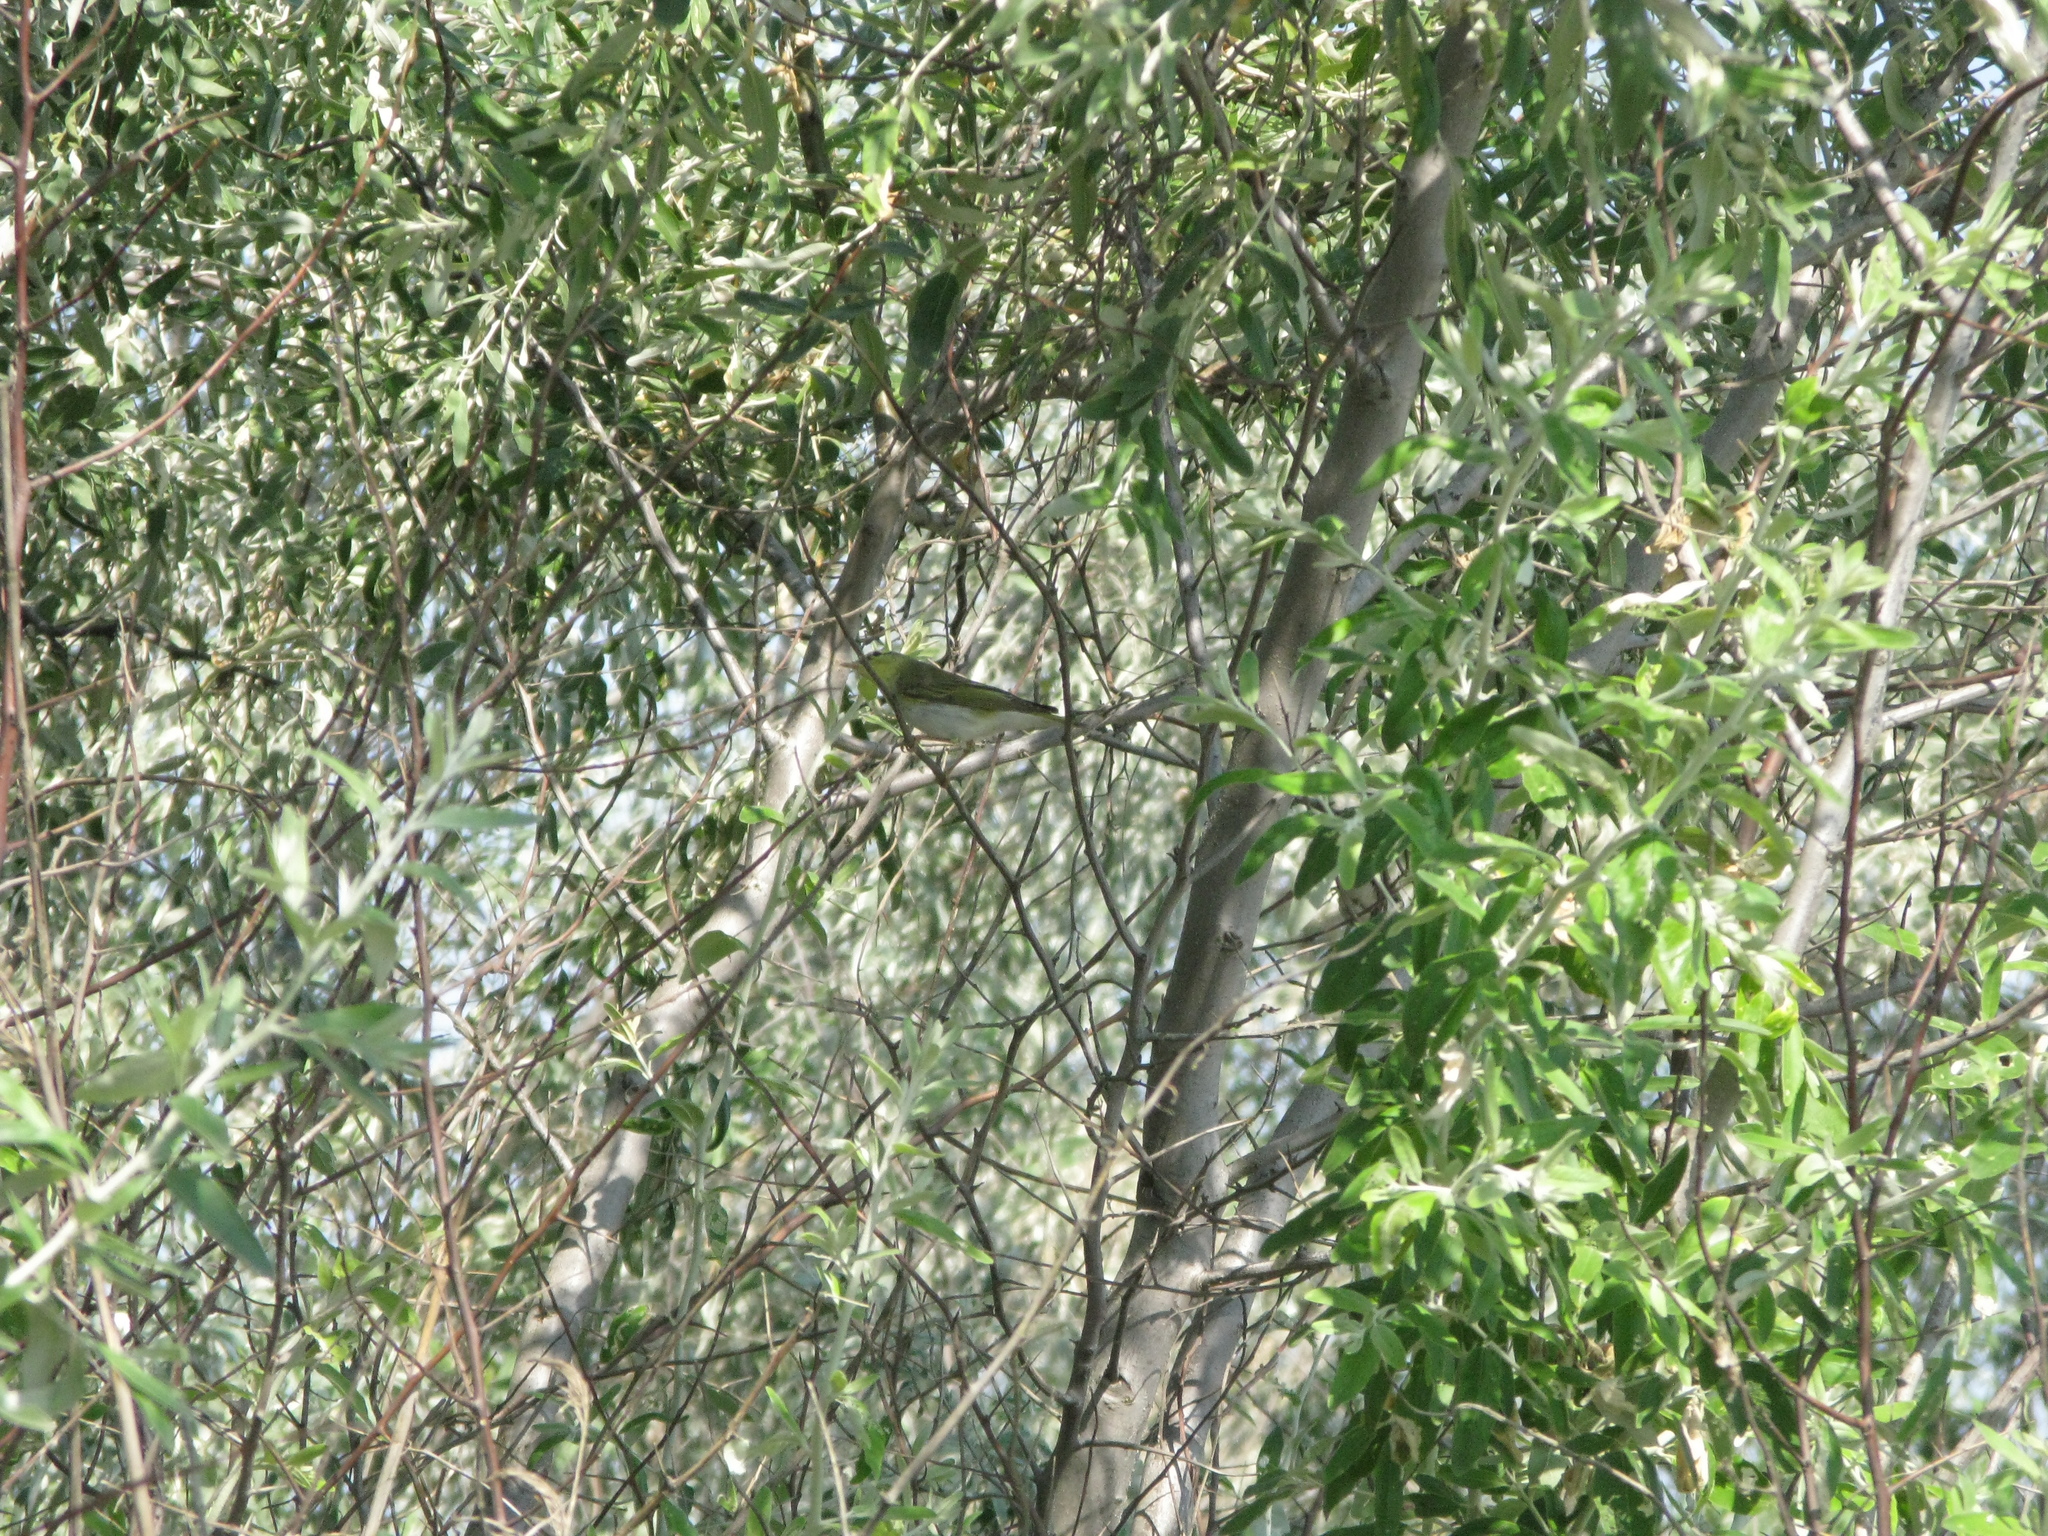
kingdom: Animalia
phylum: Chordata
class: Aves
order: Passeriformes
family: Phylloscopidae
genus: Phylloscopus
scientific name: Phylloscopus sibillatrix
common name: Wood warbler
